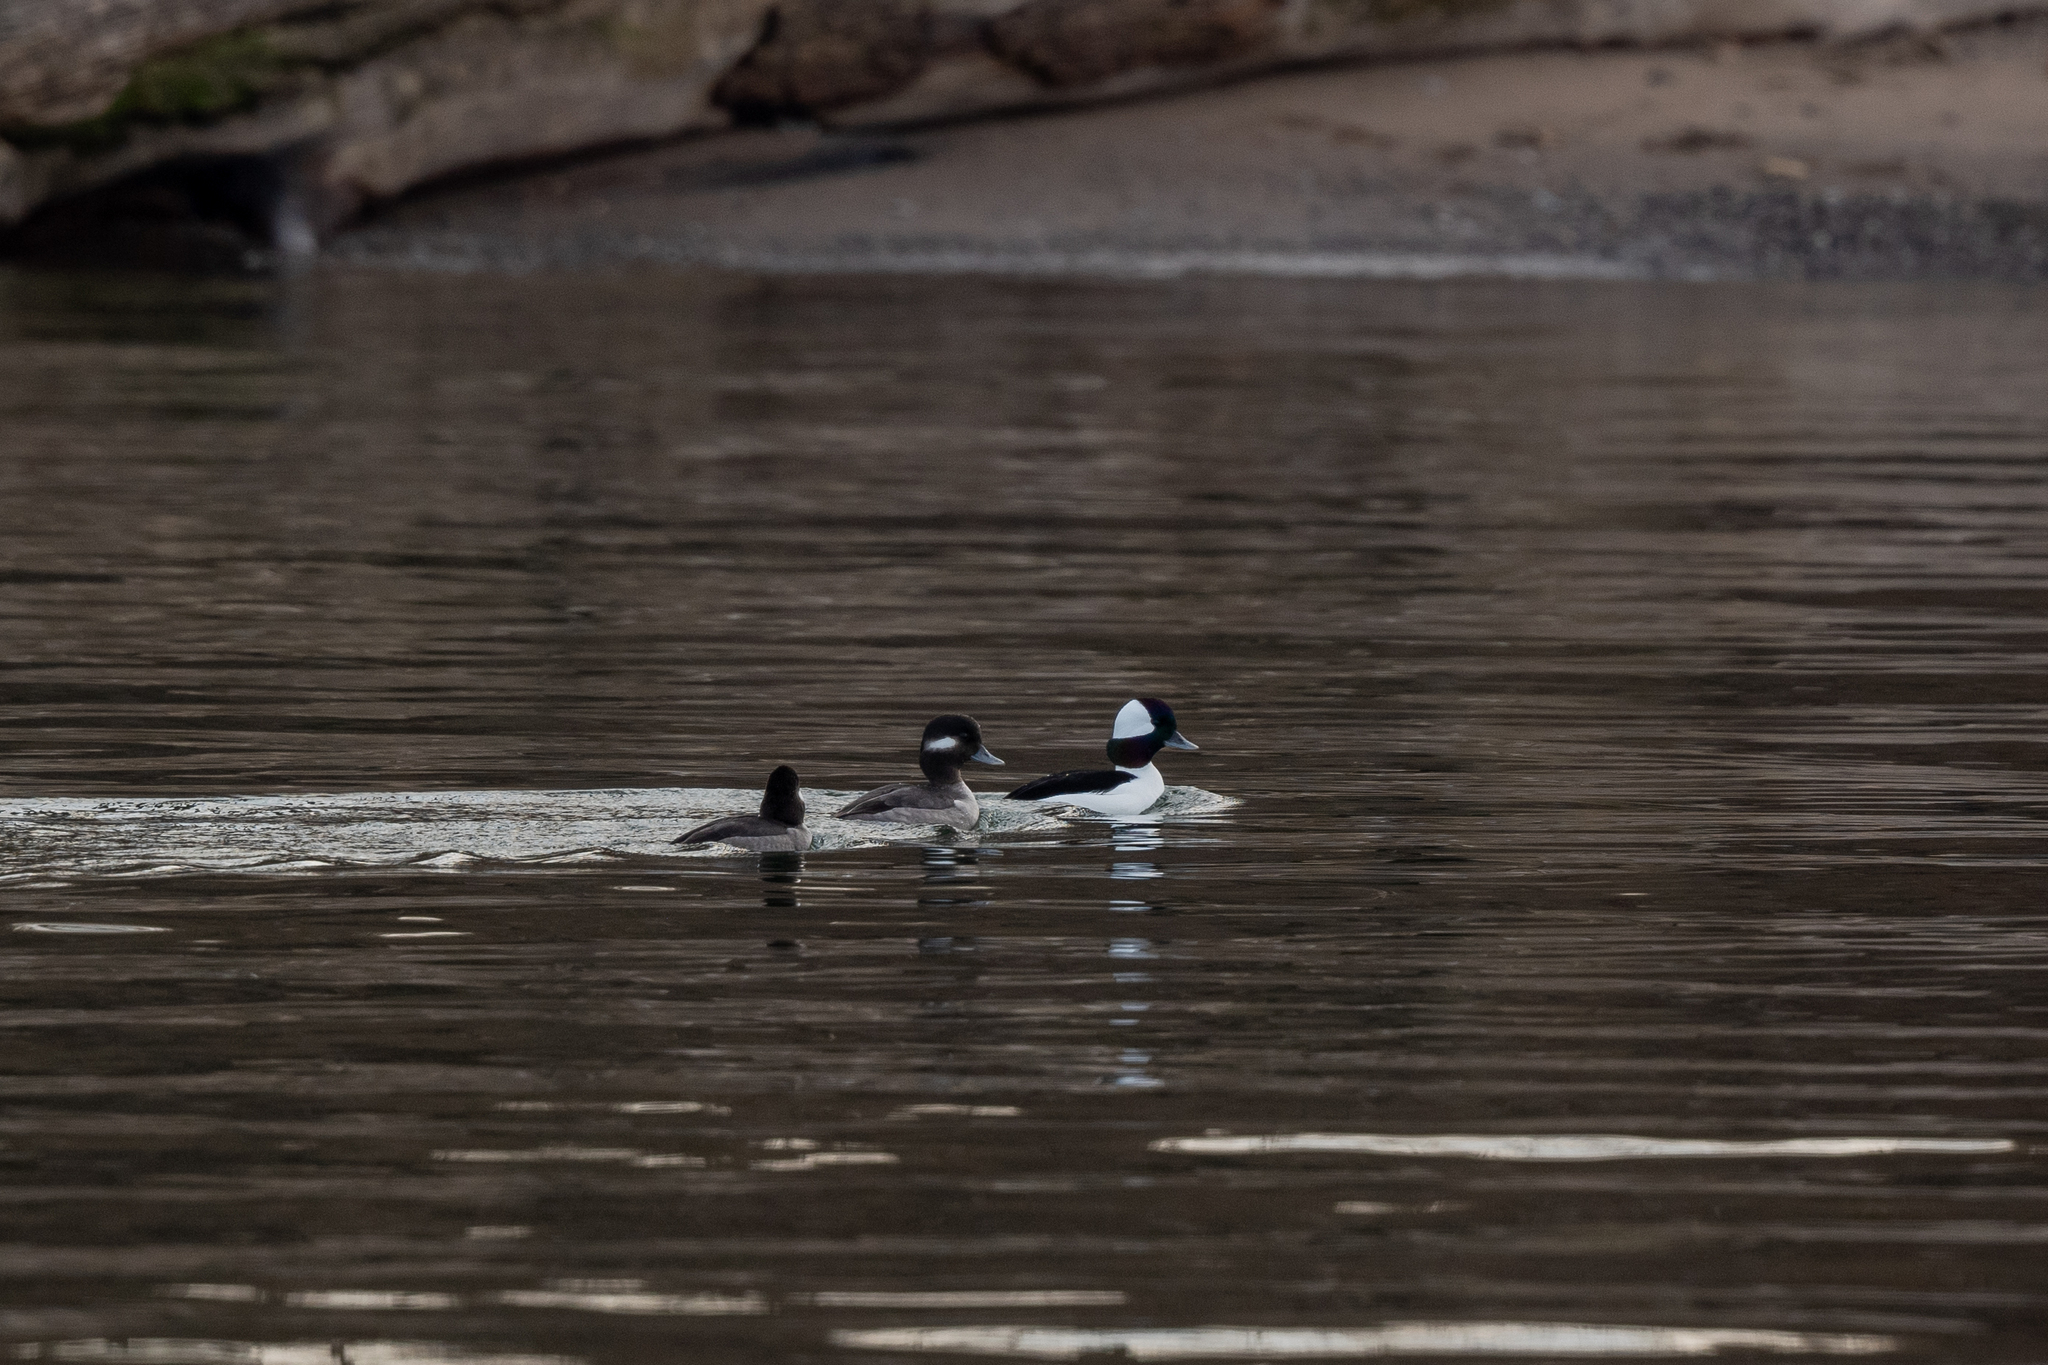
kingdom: Animalia
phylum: Chordata
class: Aves
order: Anseriformes
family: Anatidae
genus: Bucephala
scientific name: Bucephala albeola
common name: Bufflehead
